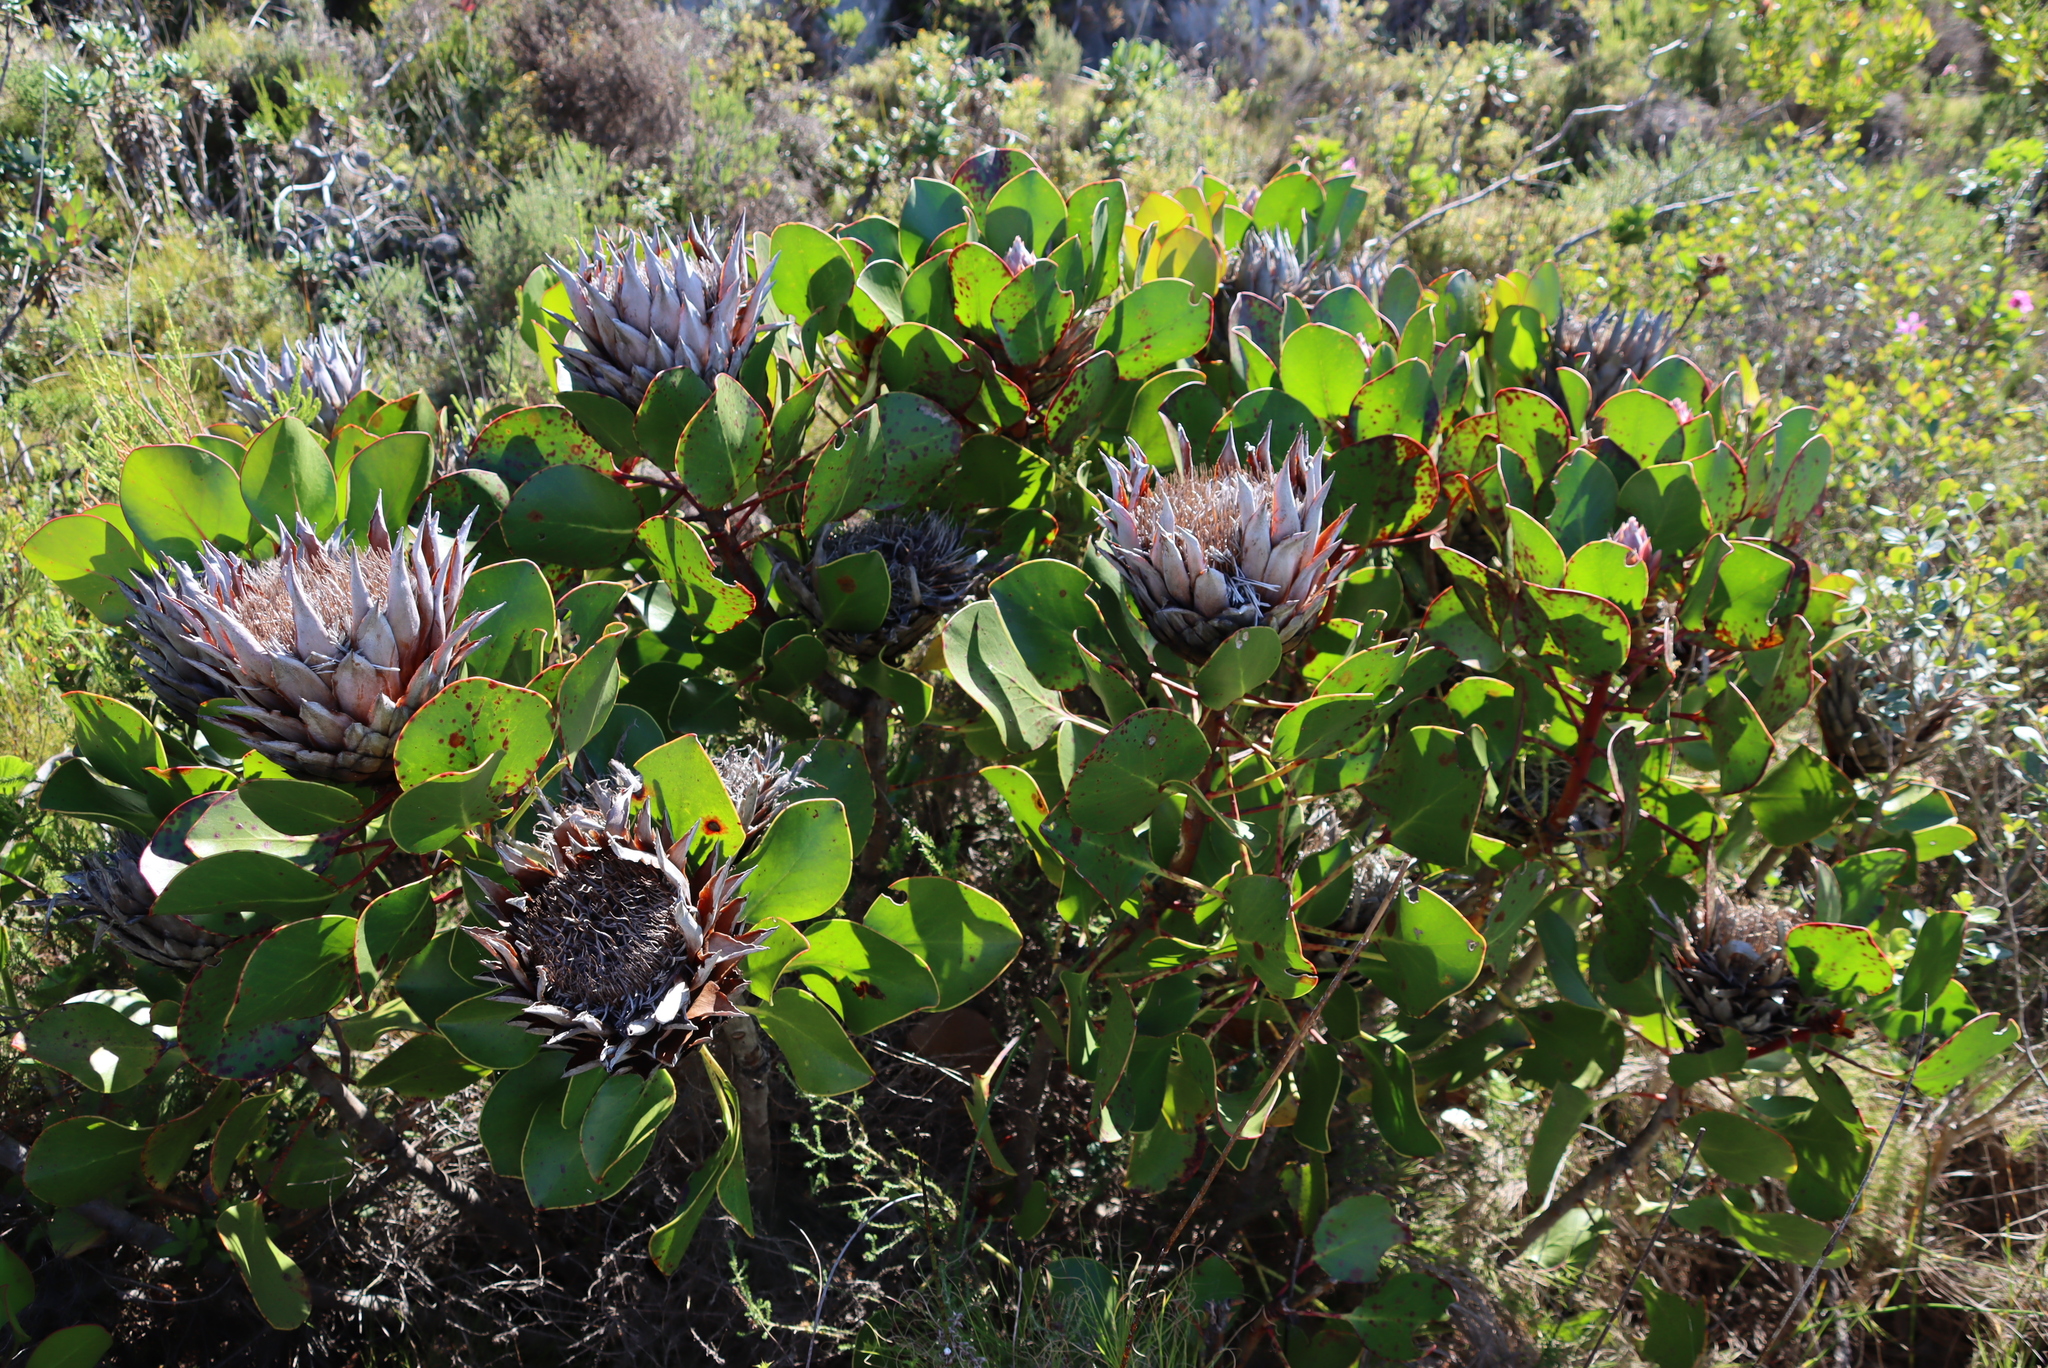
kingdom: Plantae
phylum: Tracheophyta
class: Magnoliopsida
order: Proteales
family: Proteaceae
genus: Protea
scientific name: Protea cynaroides
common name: King protea
